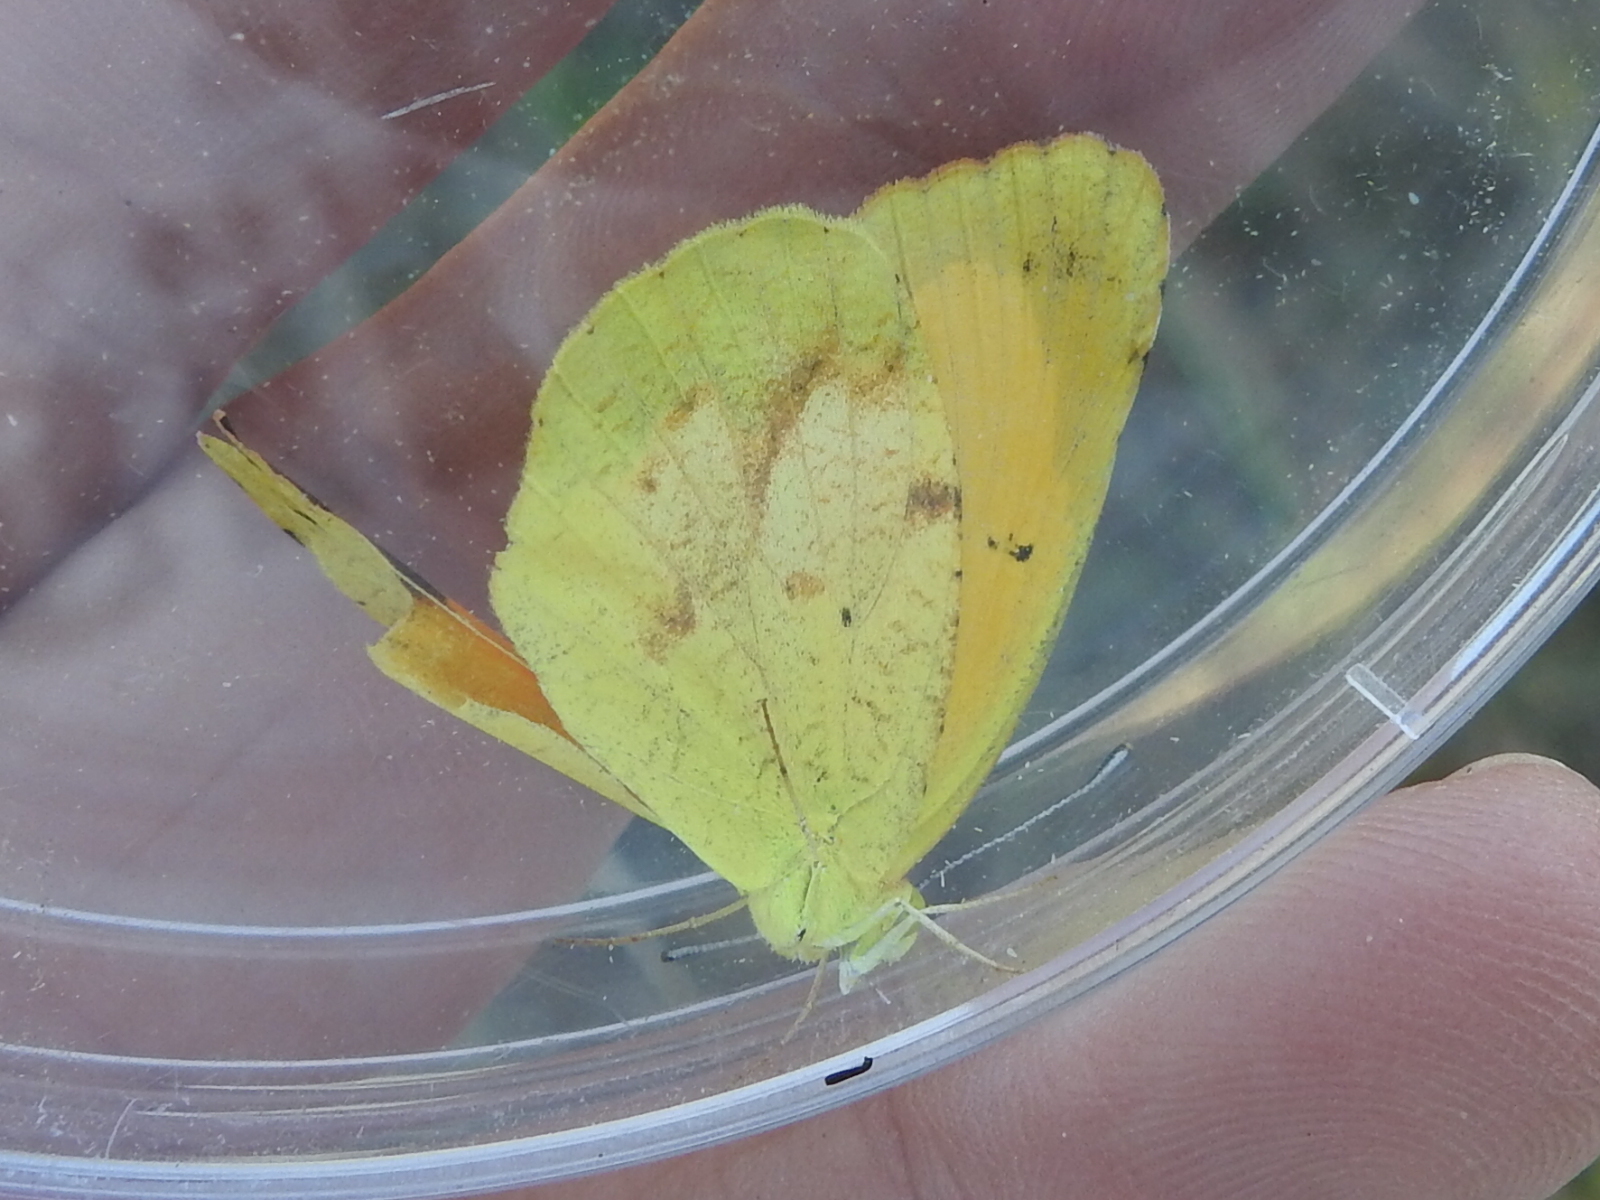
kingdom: Animalia
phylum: Arthropoda
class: Insecta
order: Lepidoptera
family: Pieridae
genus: Abaeis
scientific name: Abaeis nicippe
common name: Sleepy orange
